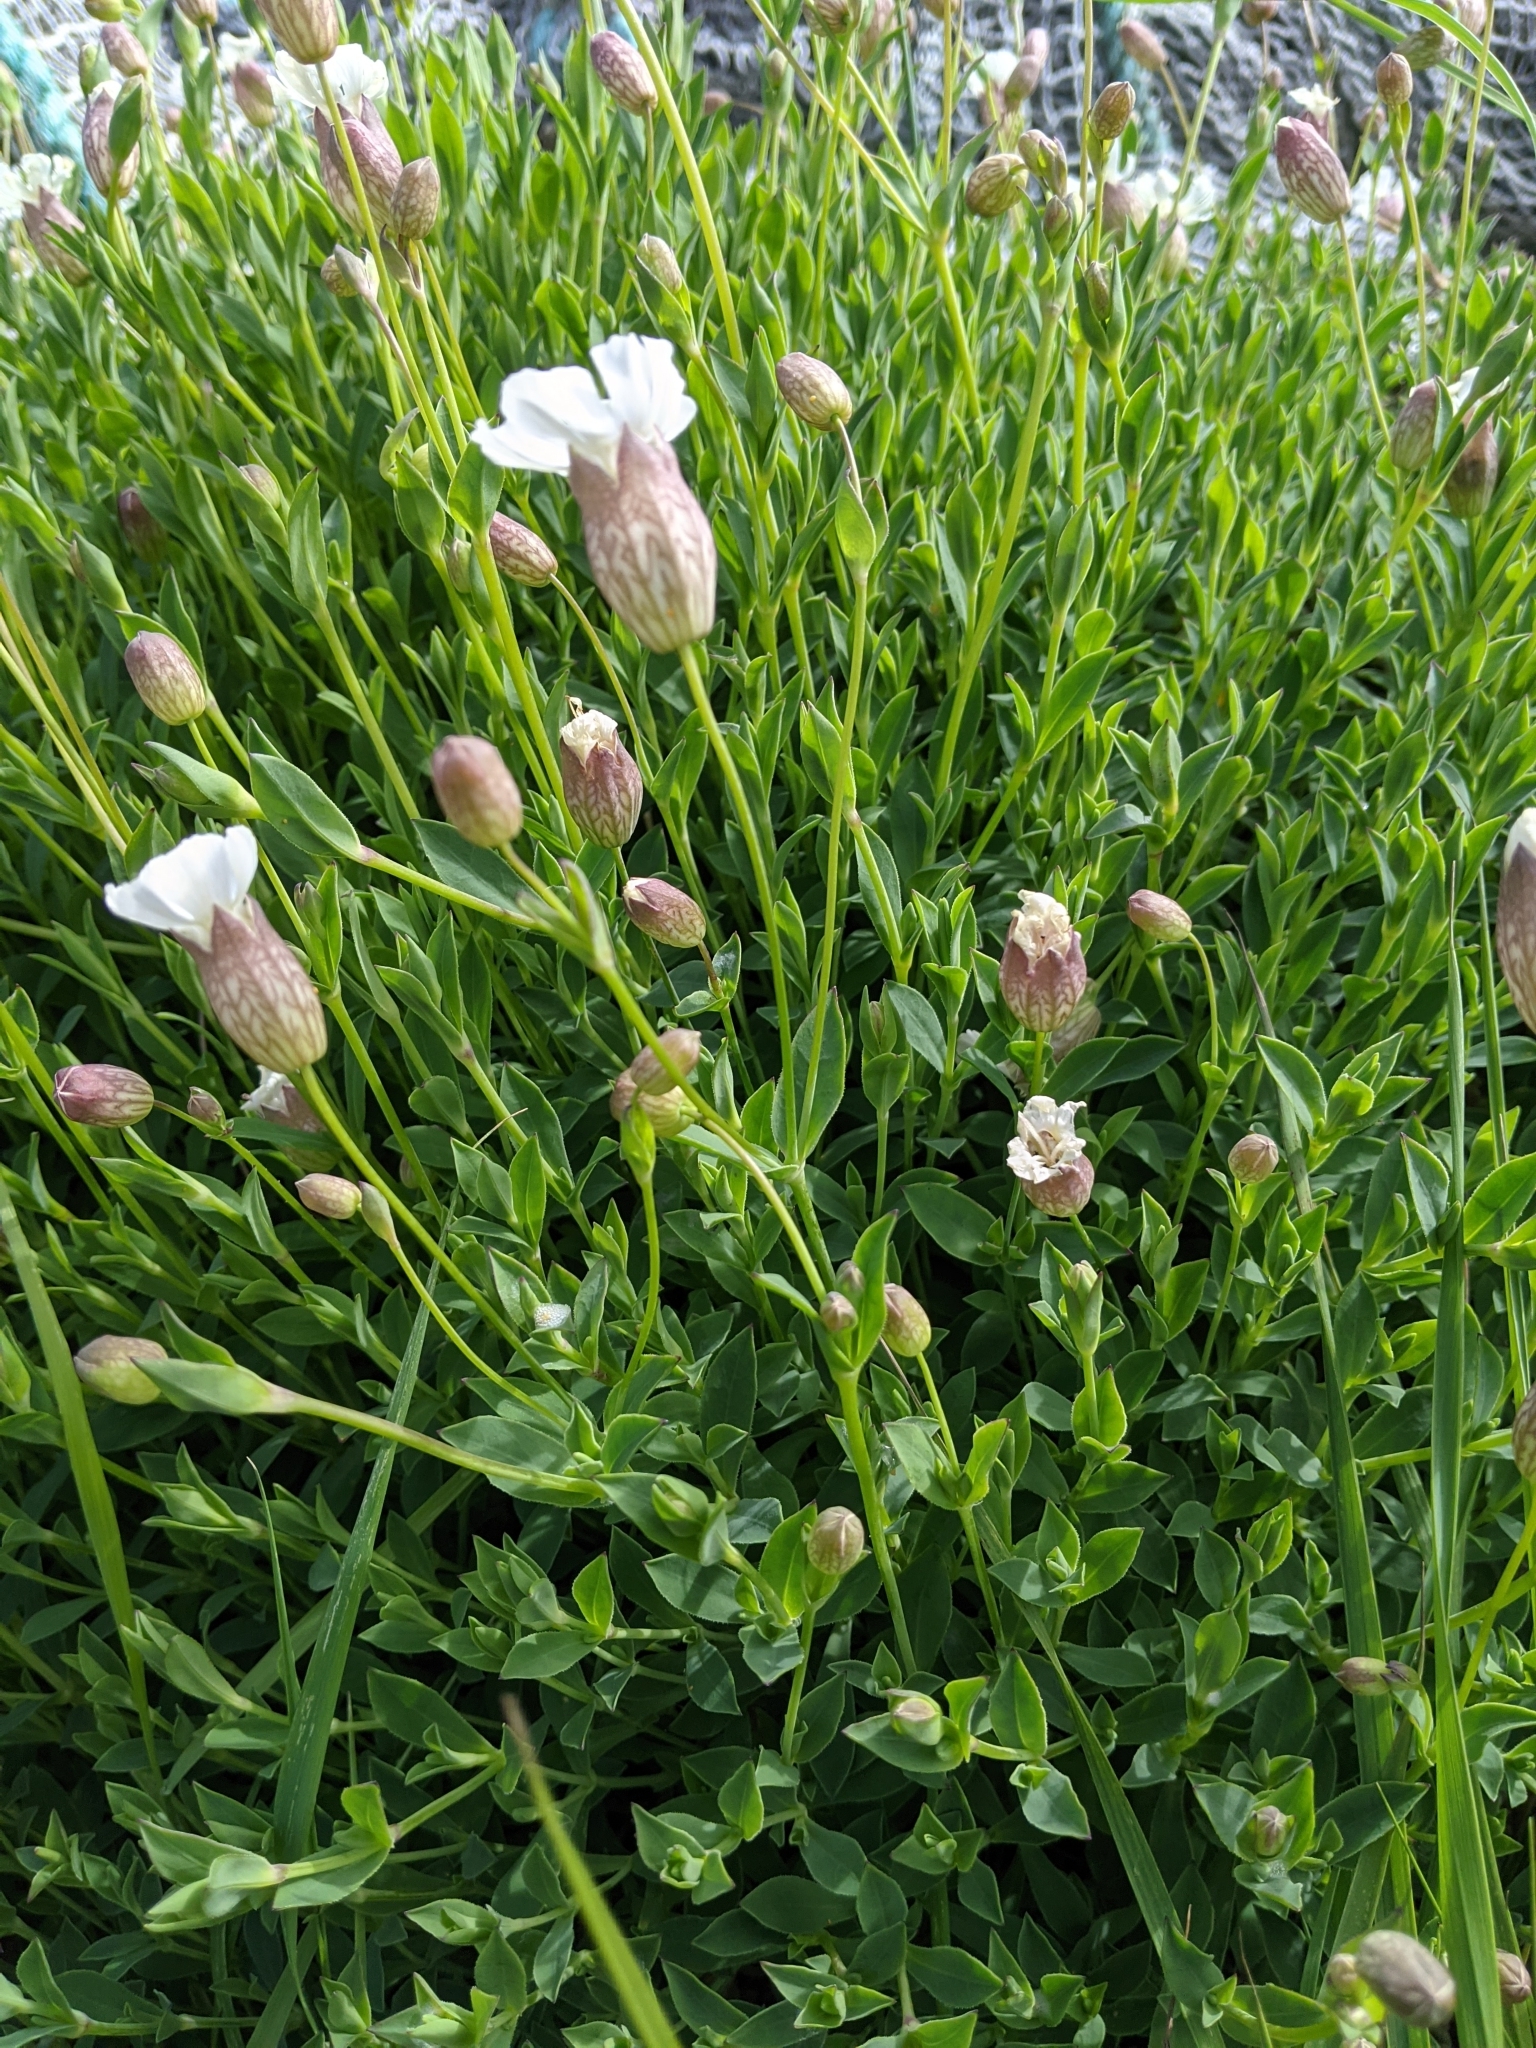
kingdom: Plantae
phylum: Tracheophyta
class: Magnoliopsida
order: Caryophyllales
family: Caryophyllaceae
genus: Silene
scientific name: Silene uniflora
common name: Sea campion
